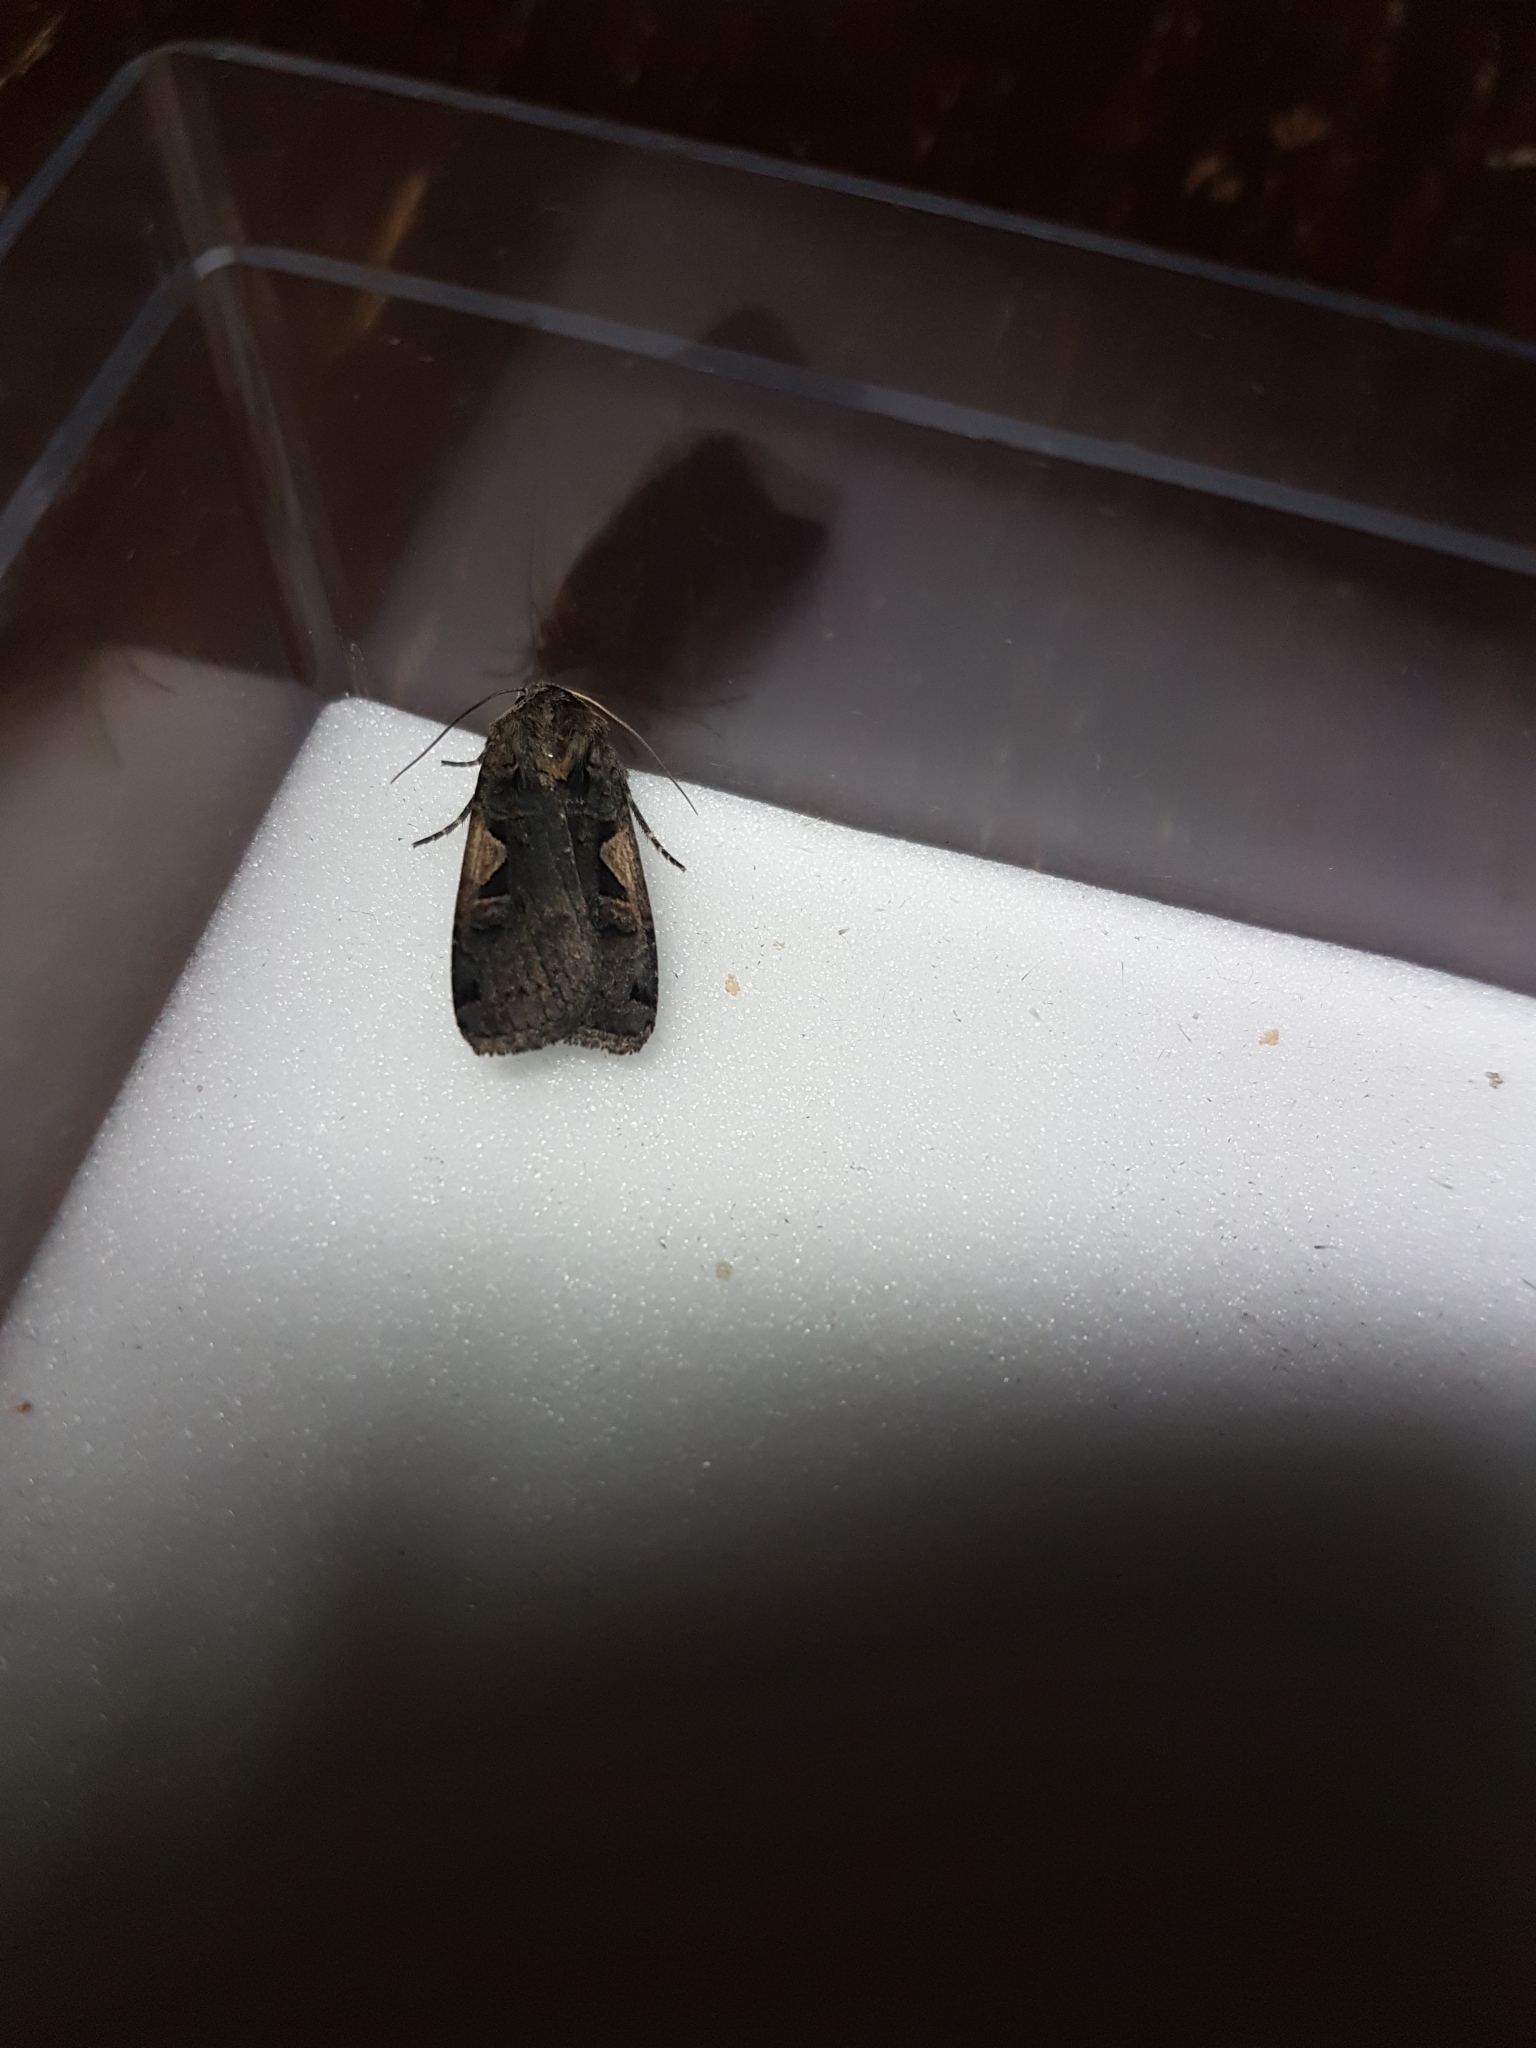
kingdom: Animalia
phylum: Arthropoda
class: Insecta
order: Lepidoptera
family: Noctuidae
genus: Xestia
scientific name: Xestia c-nigrum
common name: Setaceous hebrew character
